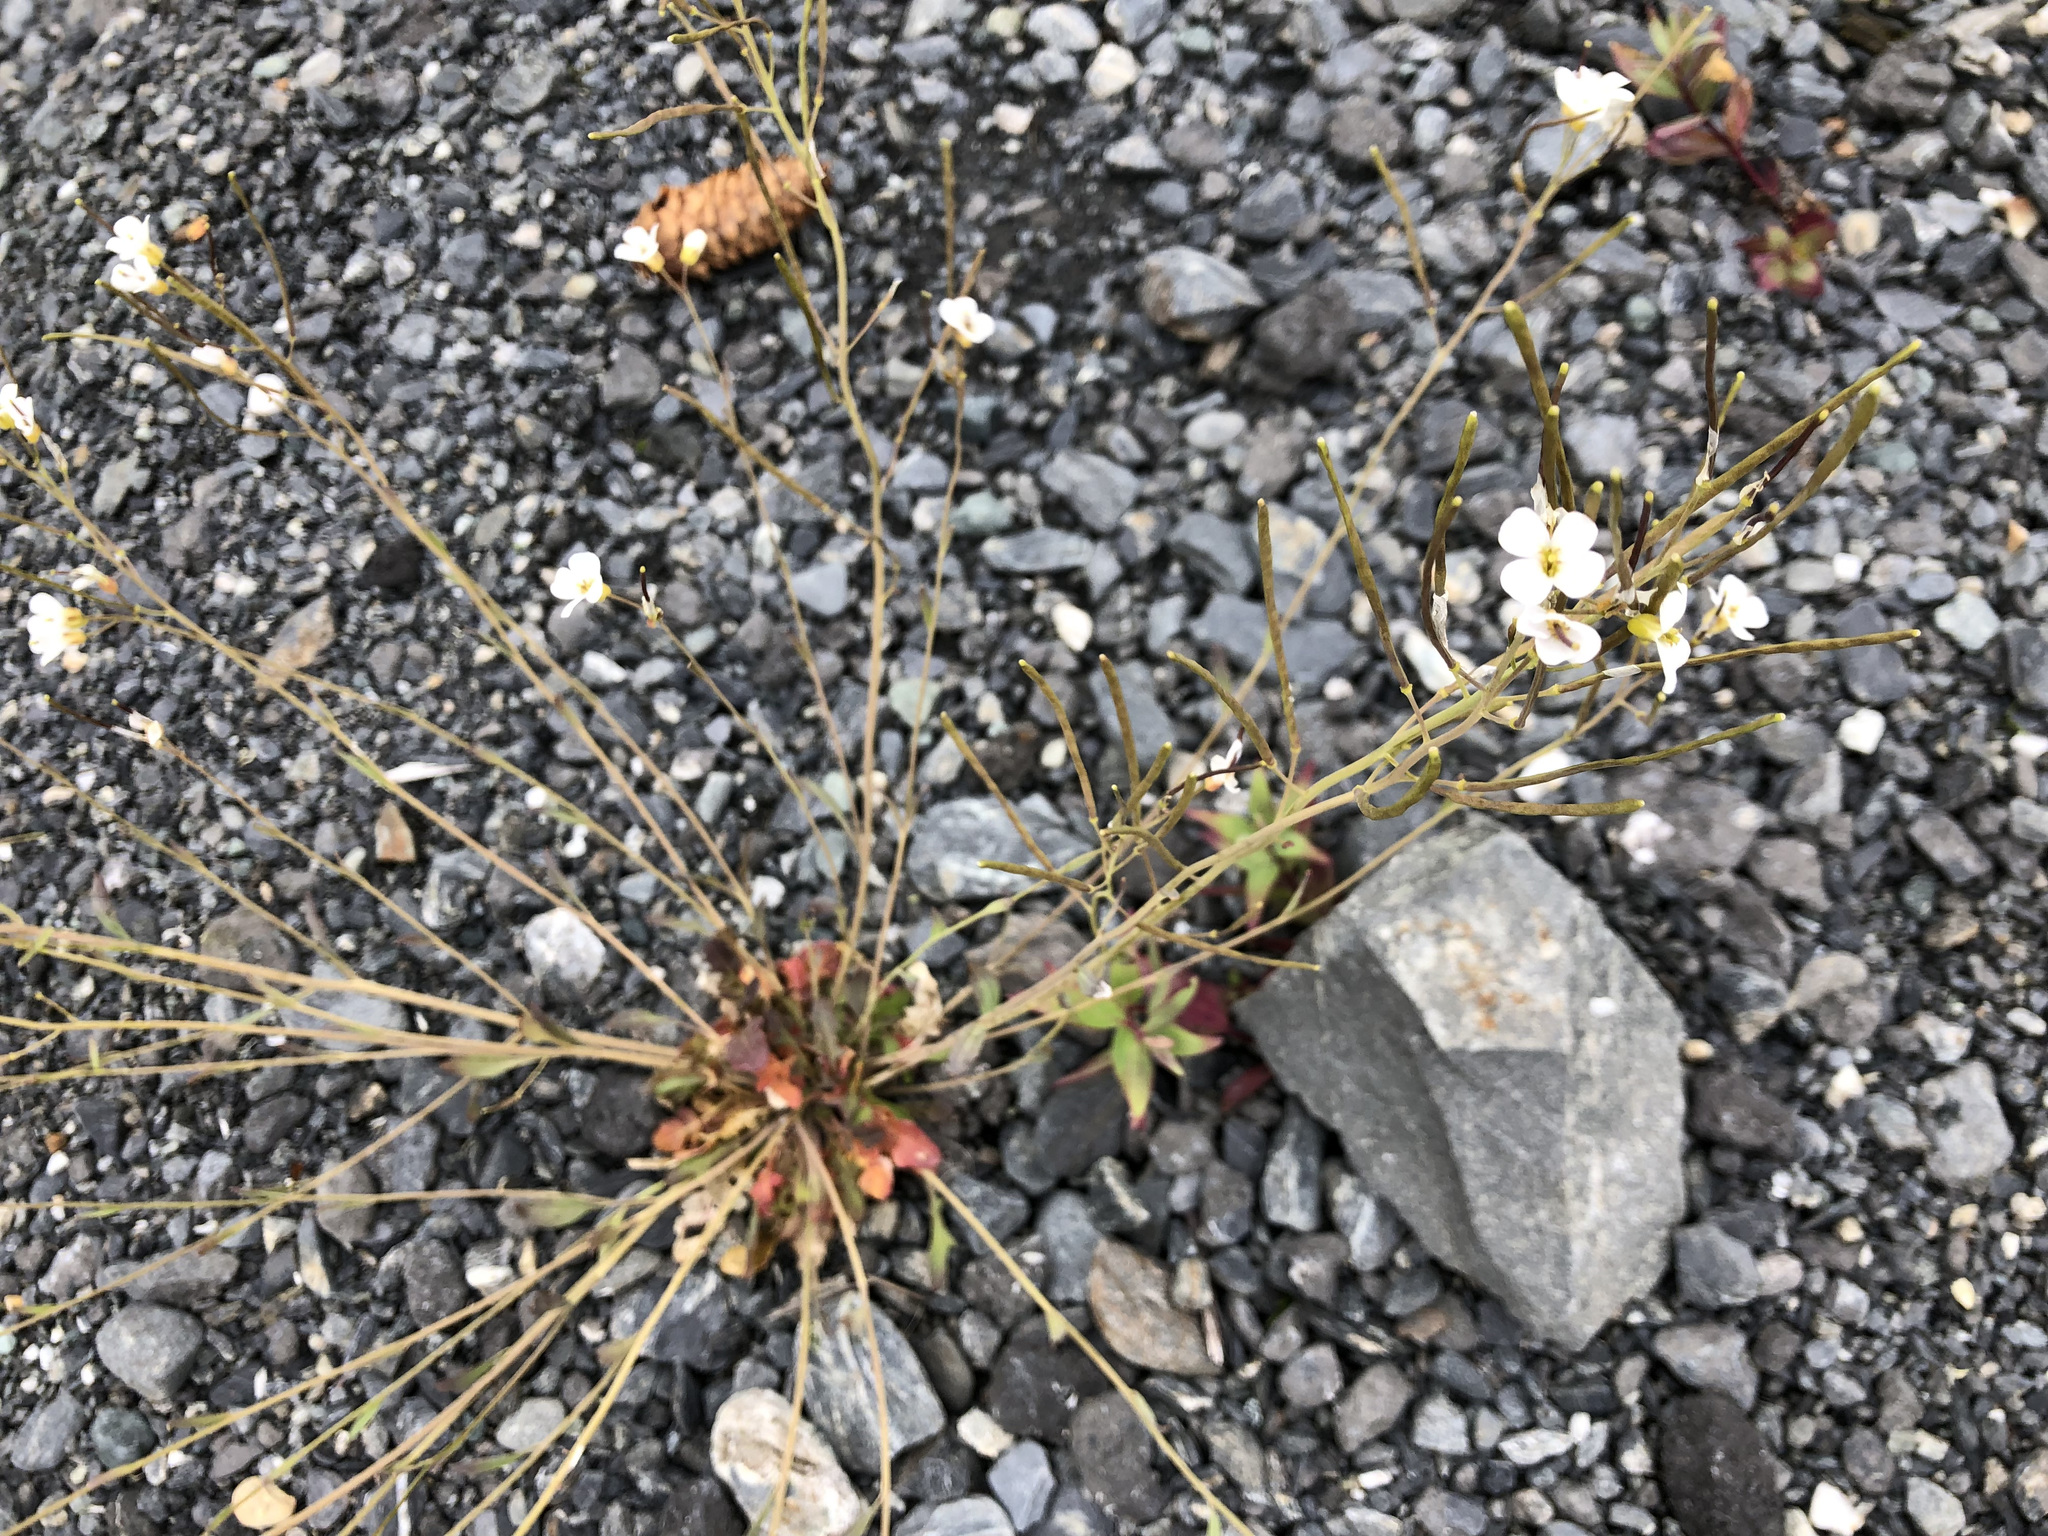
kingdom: Plantae
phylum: Tracheophyta
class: Magnoliopsida
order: Brassicales
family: Brassicaceae
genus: Arabidopsis
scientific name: Arabidopsis lyrata
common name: Lyrate rockcress
